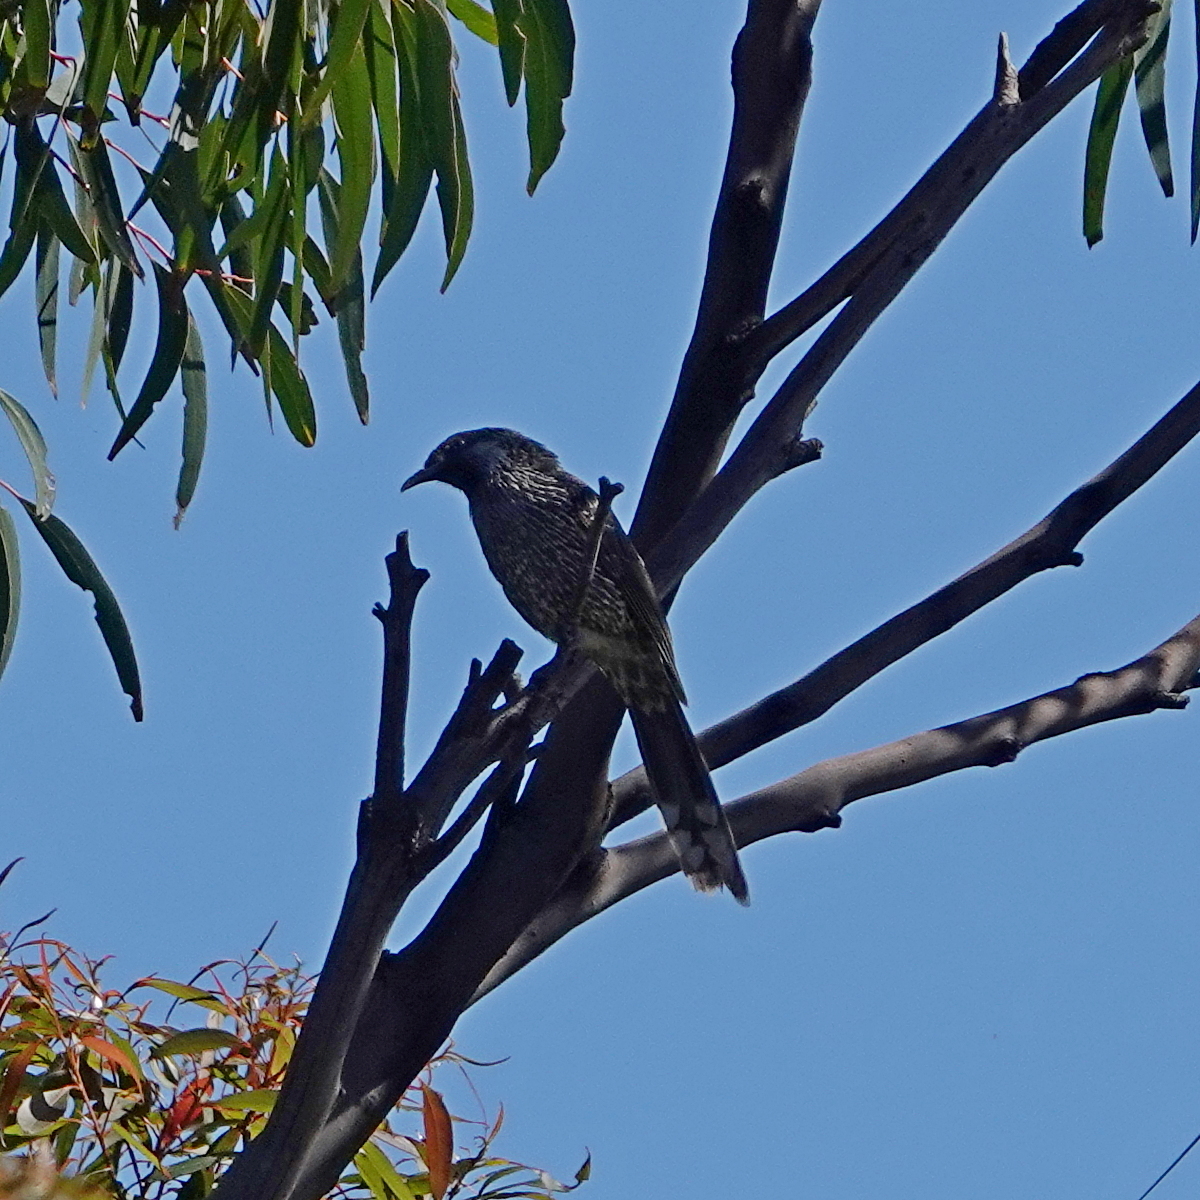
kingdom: Animalia
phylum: Chordata
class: Aves
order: Passeriformes
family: Meliphagidae
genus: Anthochaera
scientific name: Anthochaera chrysoptera
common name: Little wattlebird
